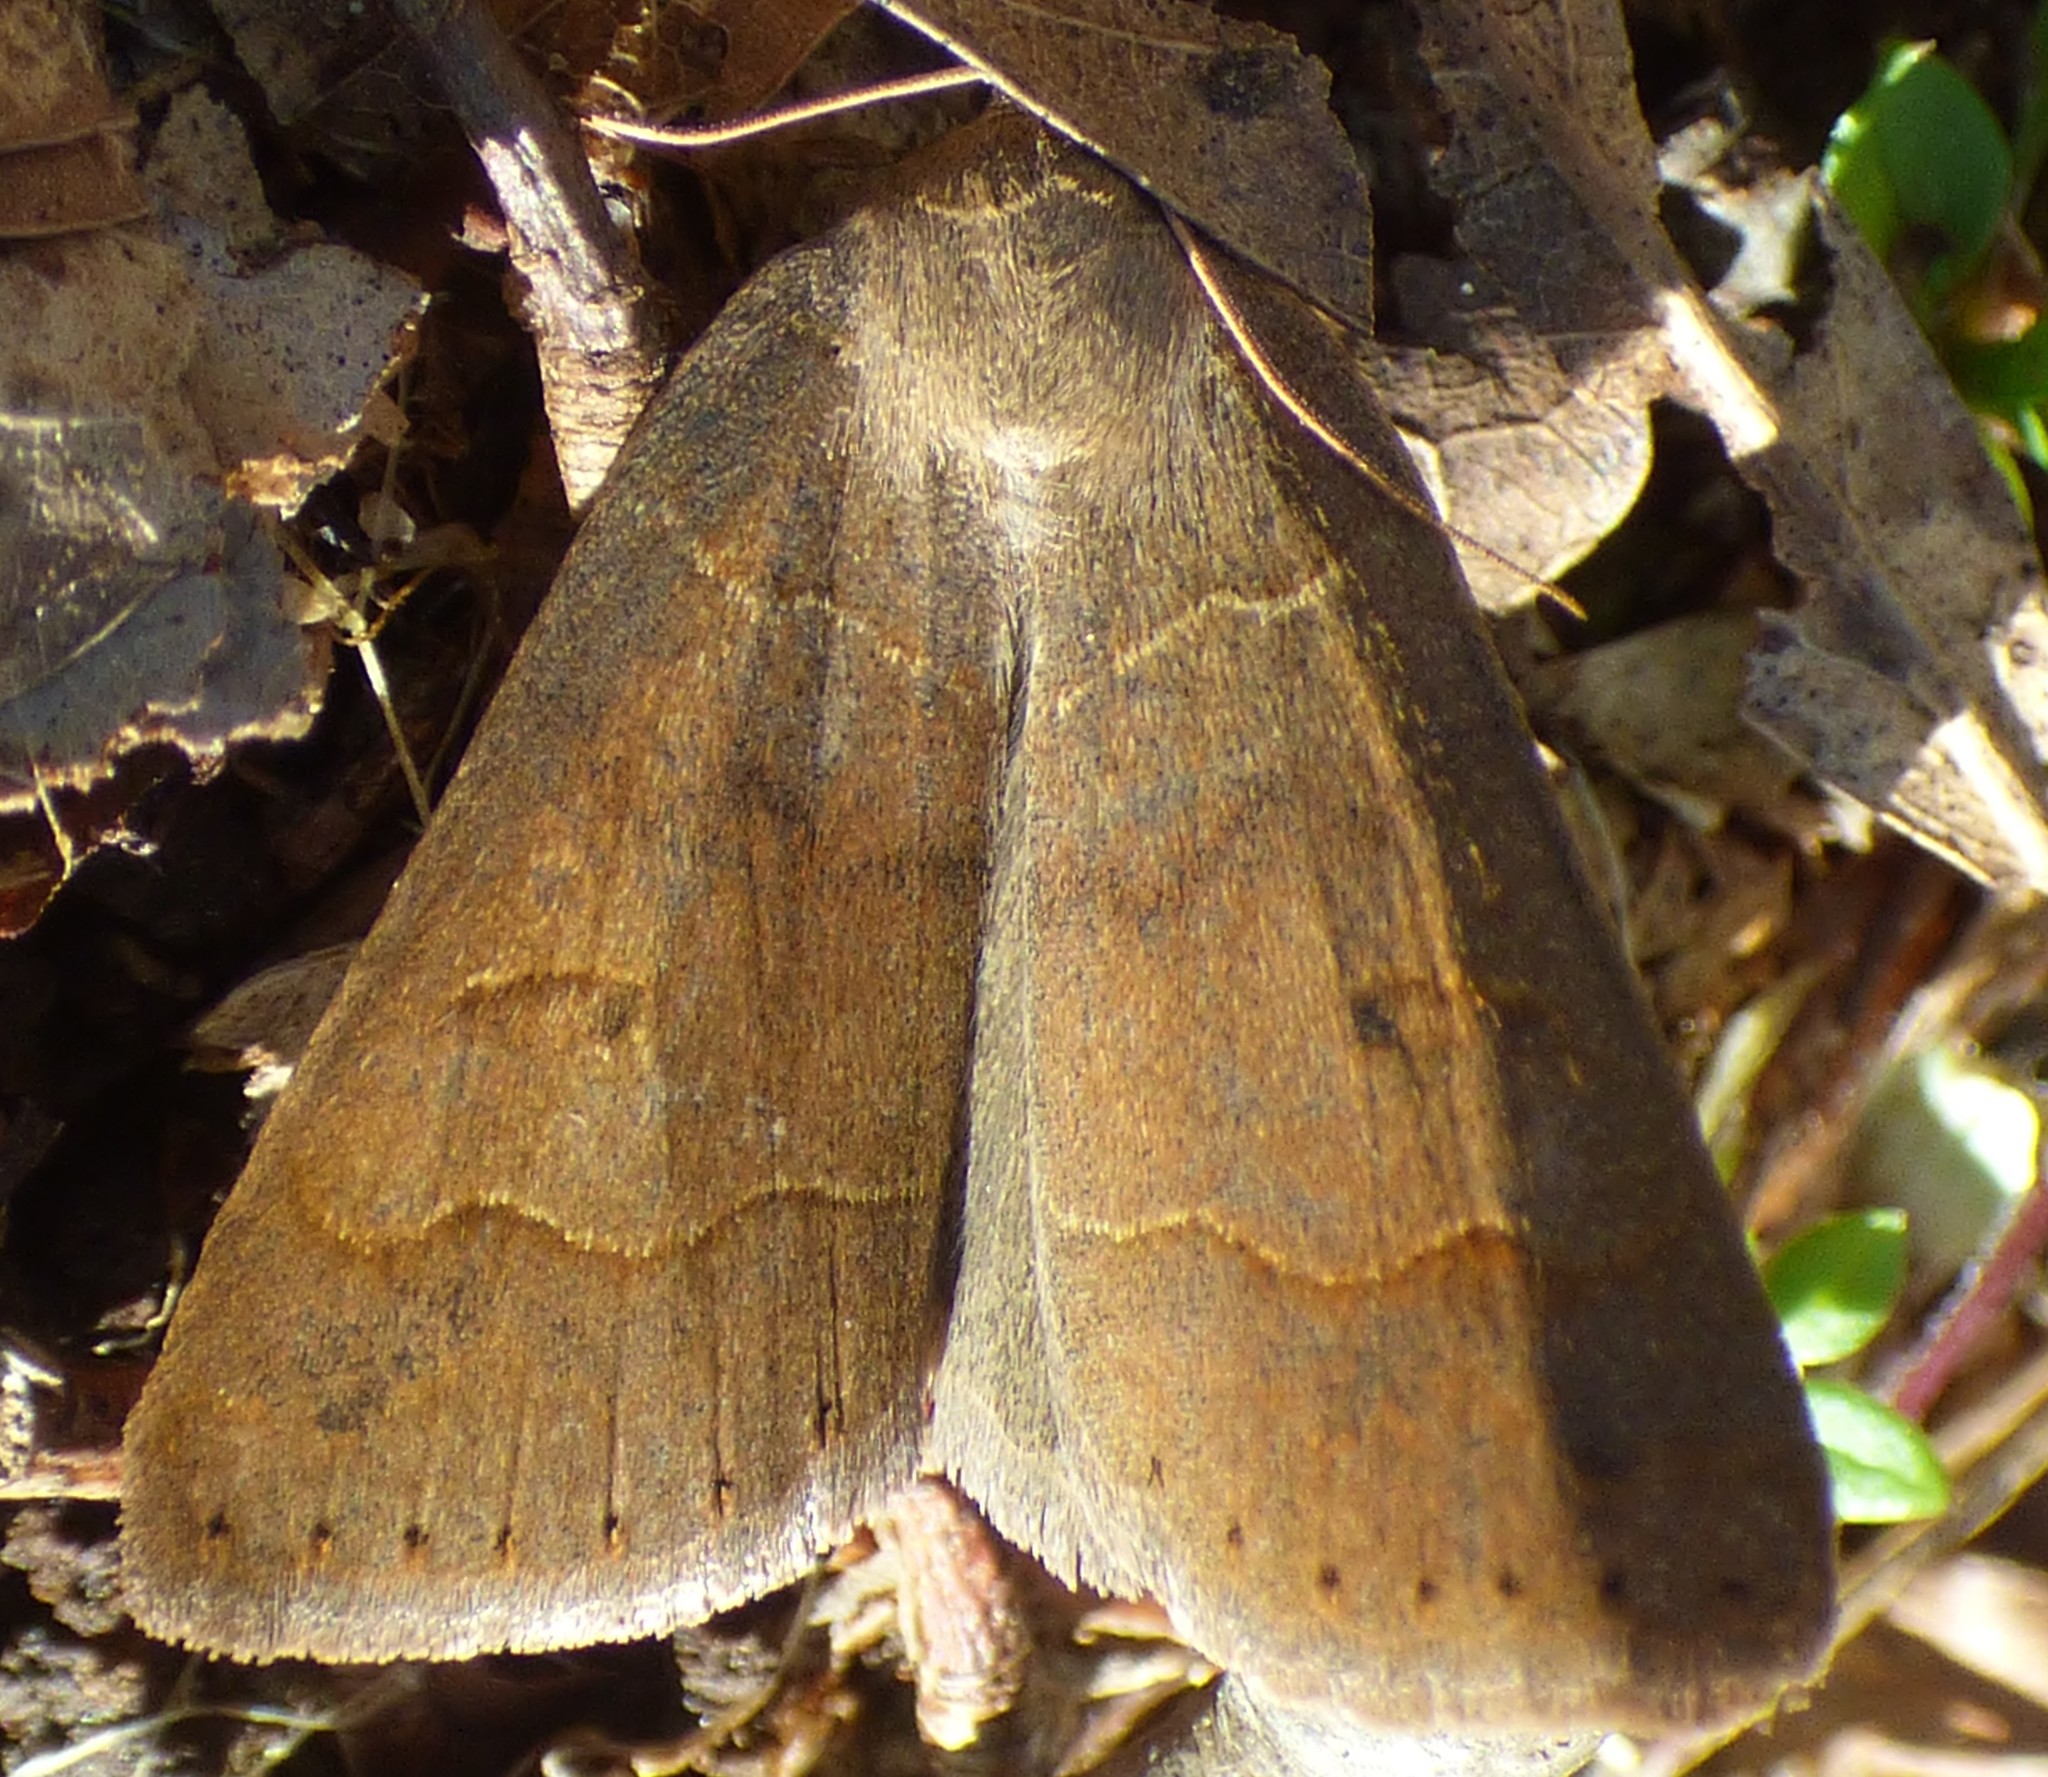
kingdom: Animalia
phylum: Arthropoda
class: Insecta
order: Lepidoptera
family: Erebidae
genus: Phoberia
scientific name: Phoberia atomaris
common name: Common oak moth
